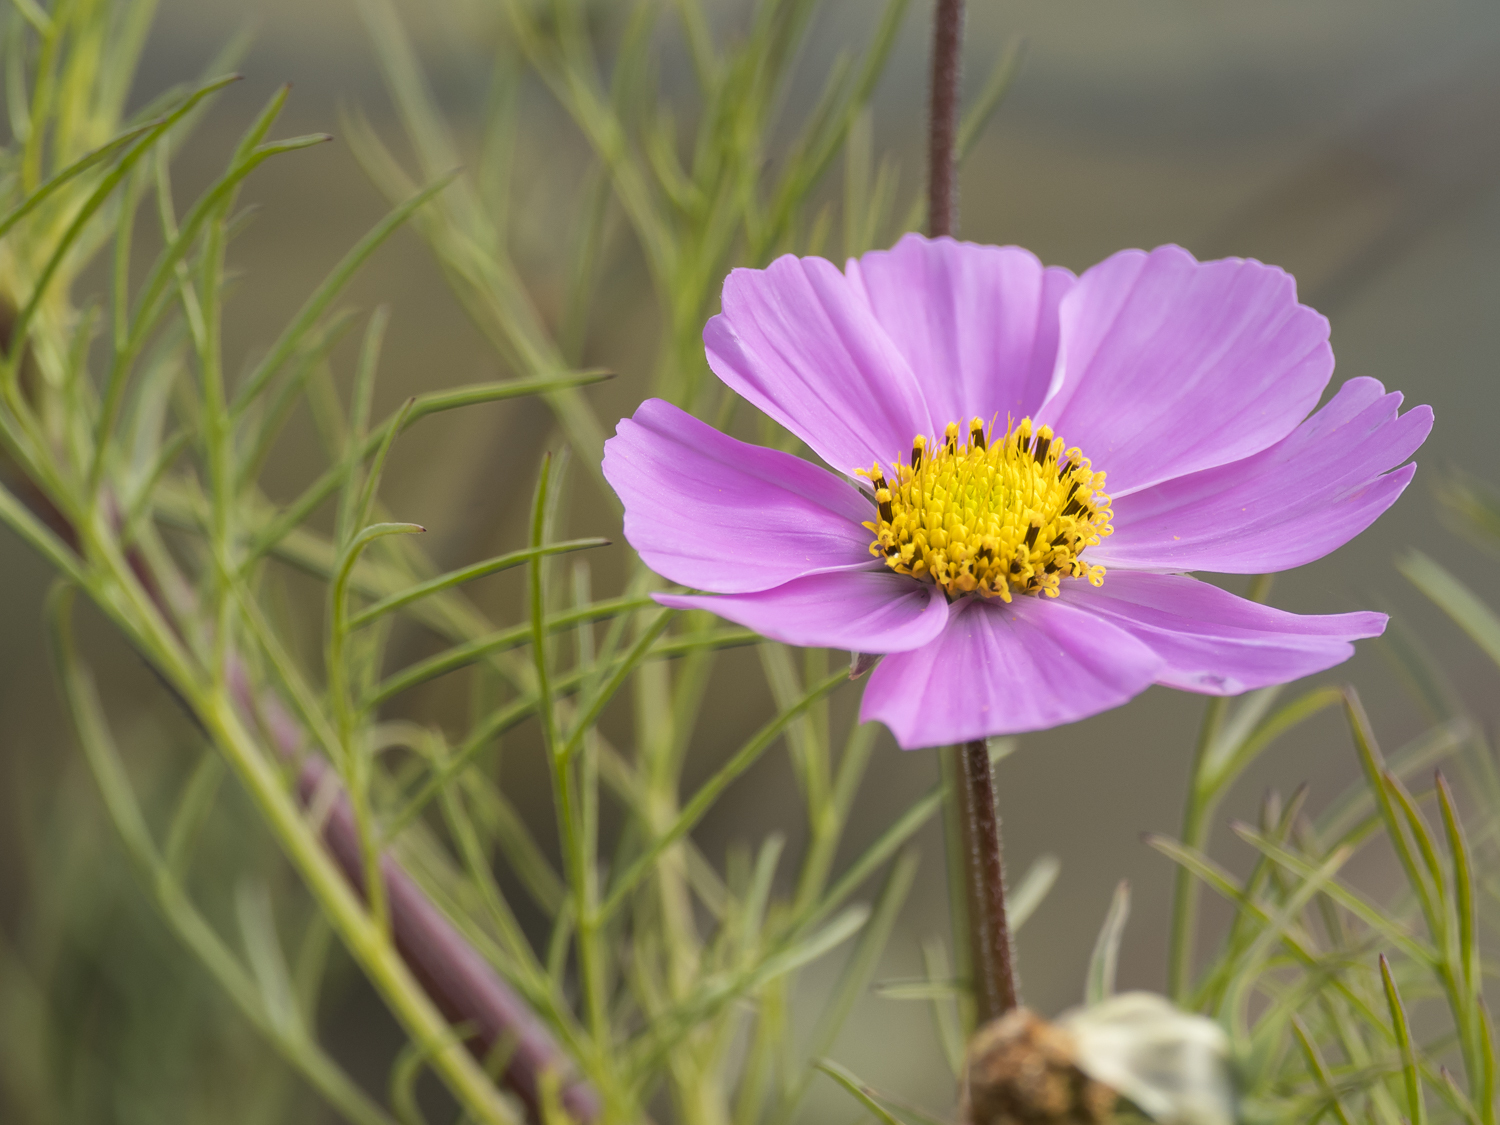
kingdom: Plantae
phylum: Tracheophyta
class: Magnoliopsida
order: Asterales
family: Asteraceae
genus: Cosmos
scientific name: Cosmos bipinnatus
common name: Garden cosmos
